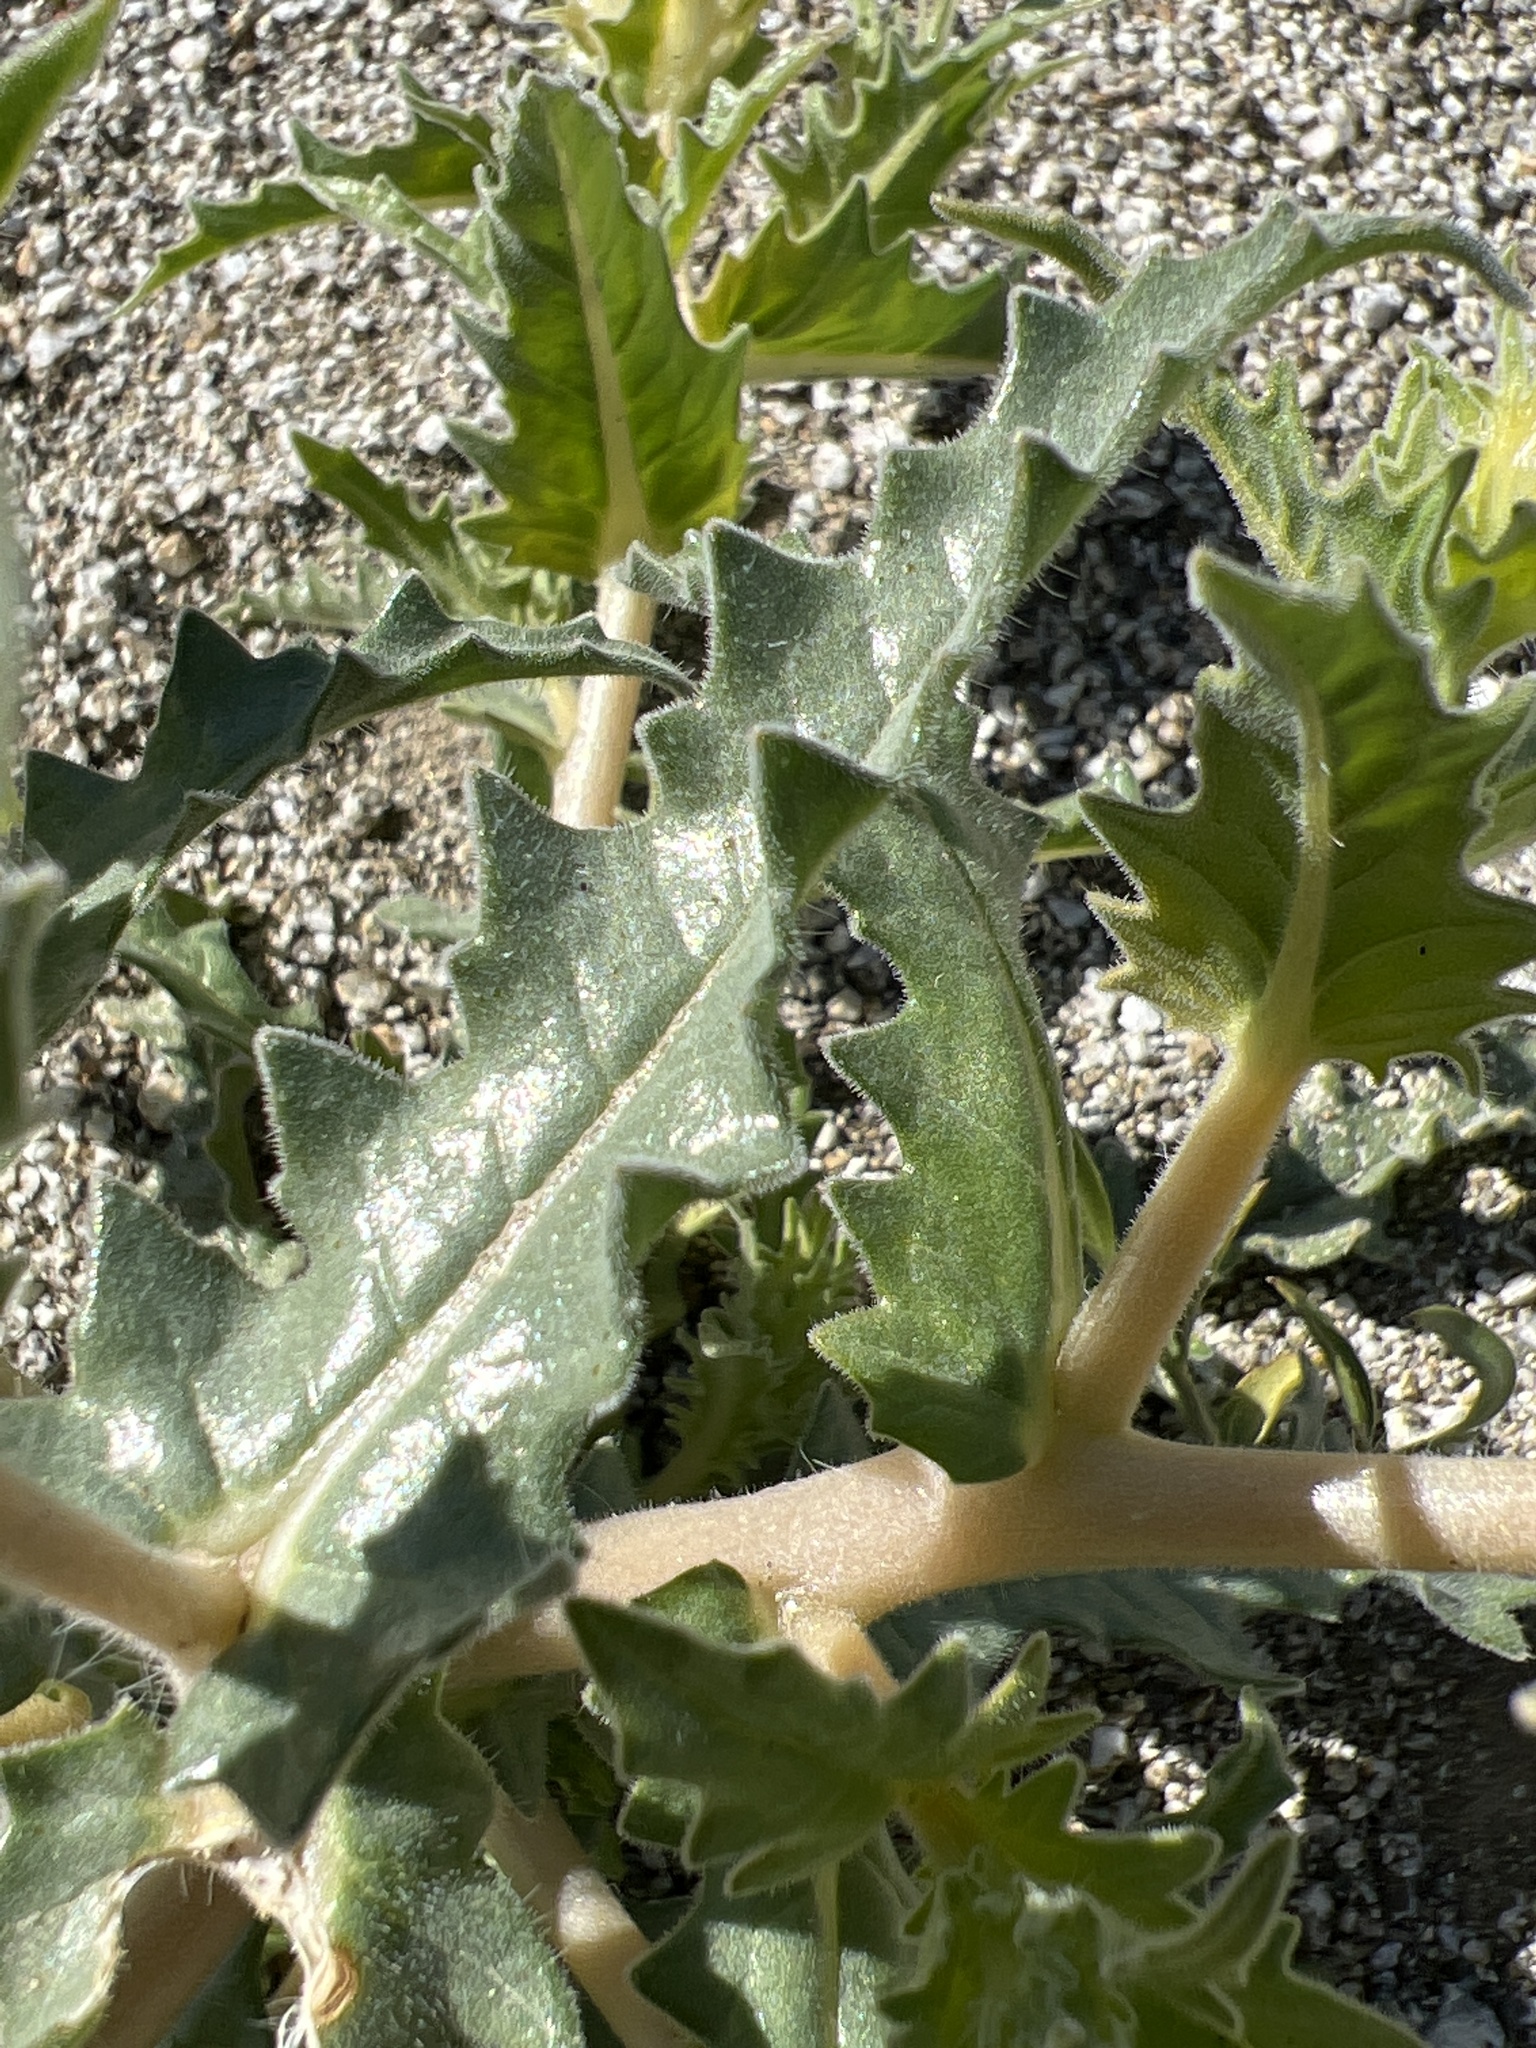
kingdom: Plantae
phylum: Tracheophyta
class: Magnoliopsida
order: Cornales
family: Loasaceae
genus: Mentzelia
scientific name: Mentzelia involucrata
